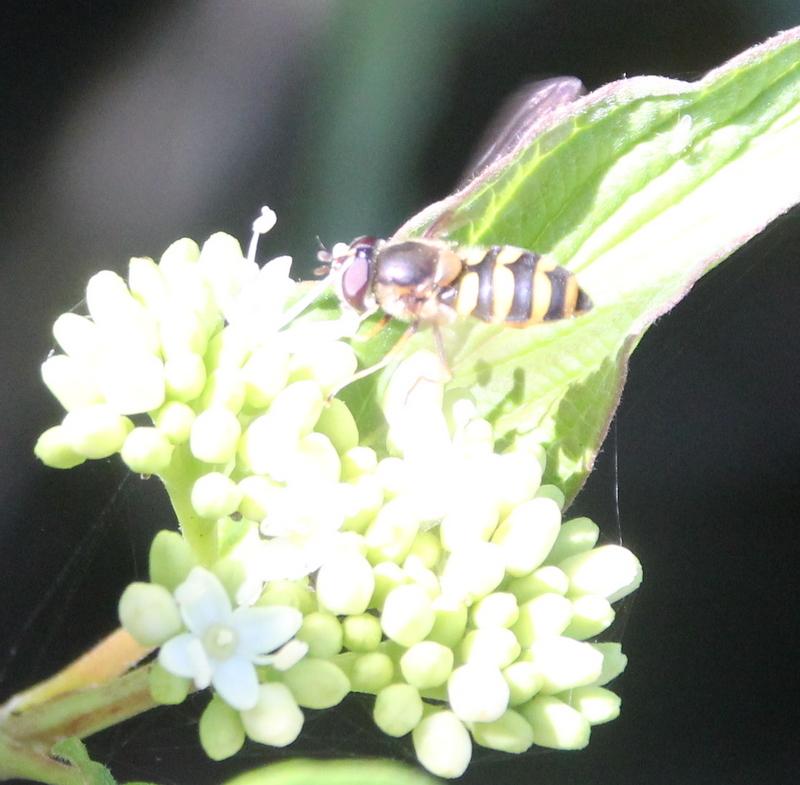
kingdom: Animalia
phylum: Arthropoda
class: Insecta
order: Diptera
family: Syrphidae
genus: Megasyrphus
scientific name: Megasyrphus laxus
